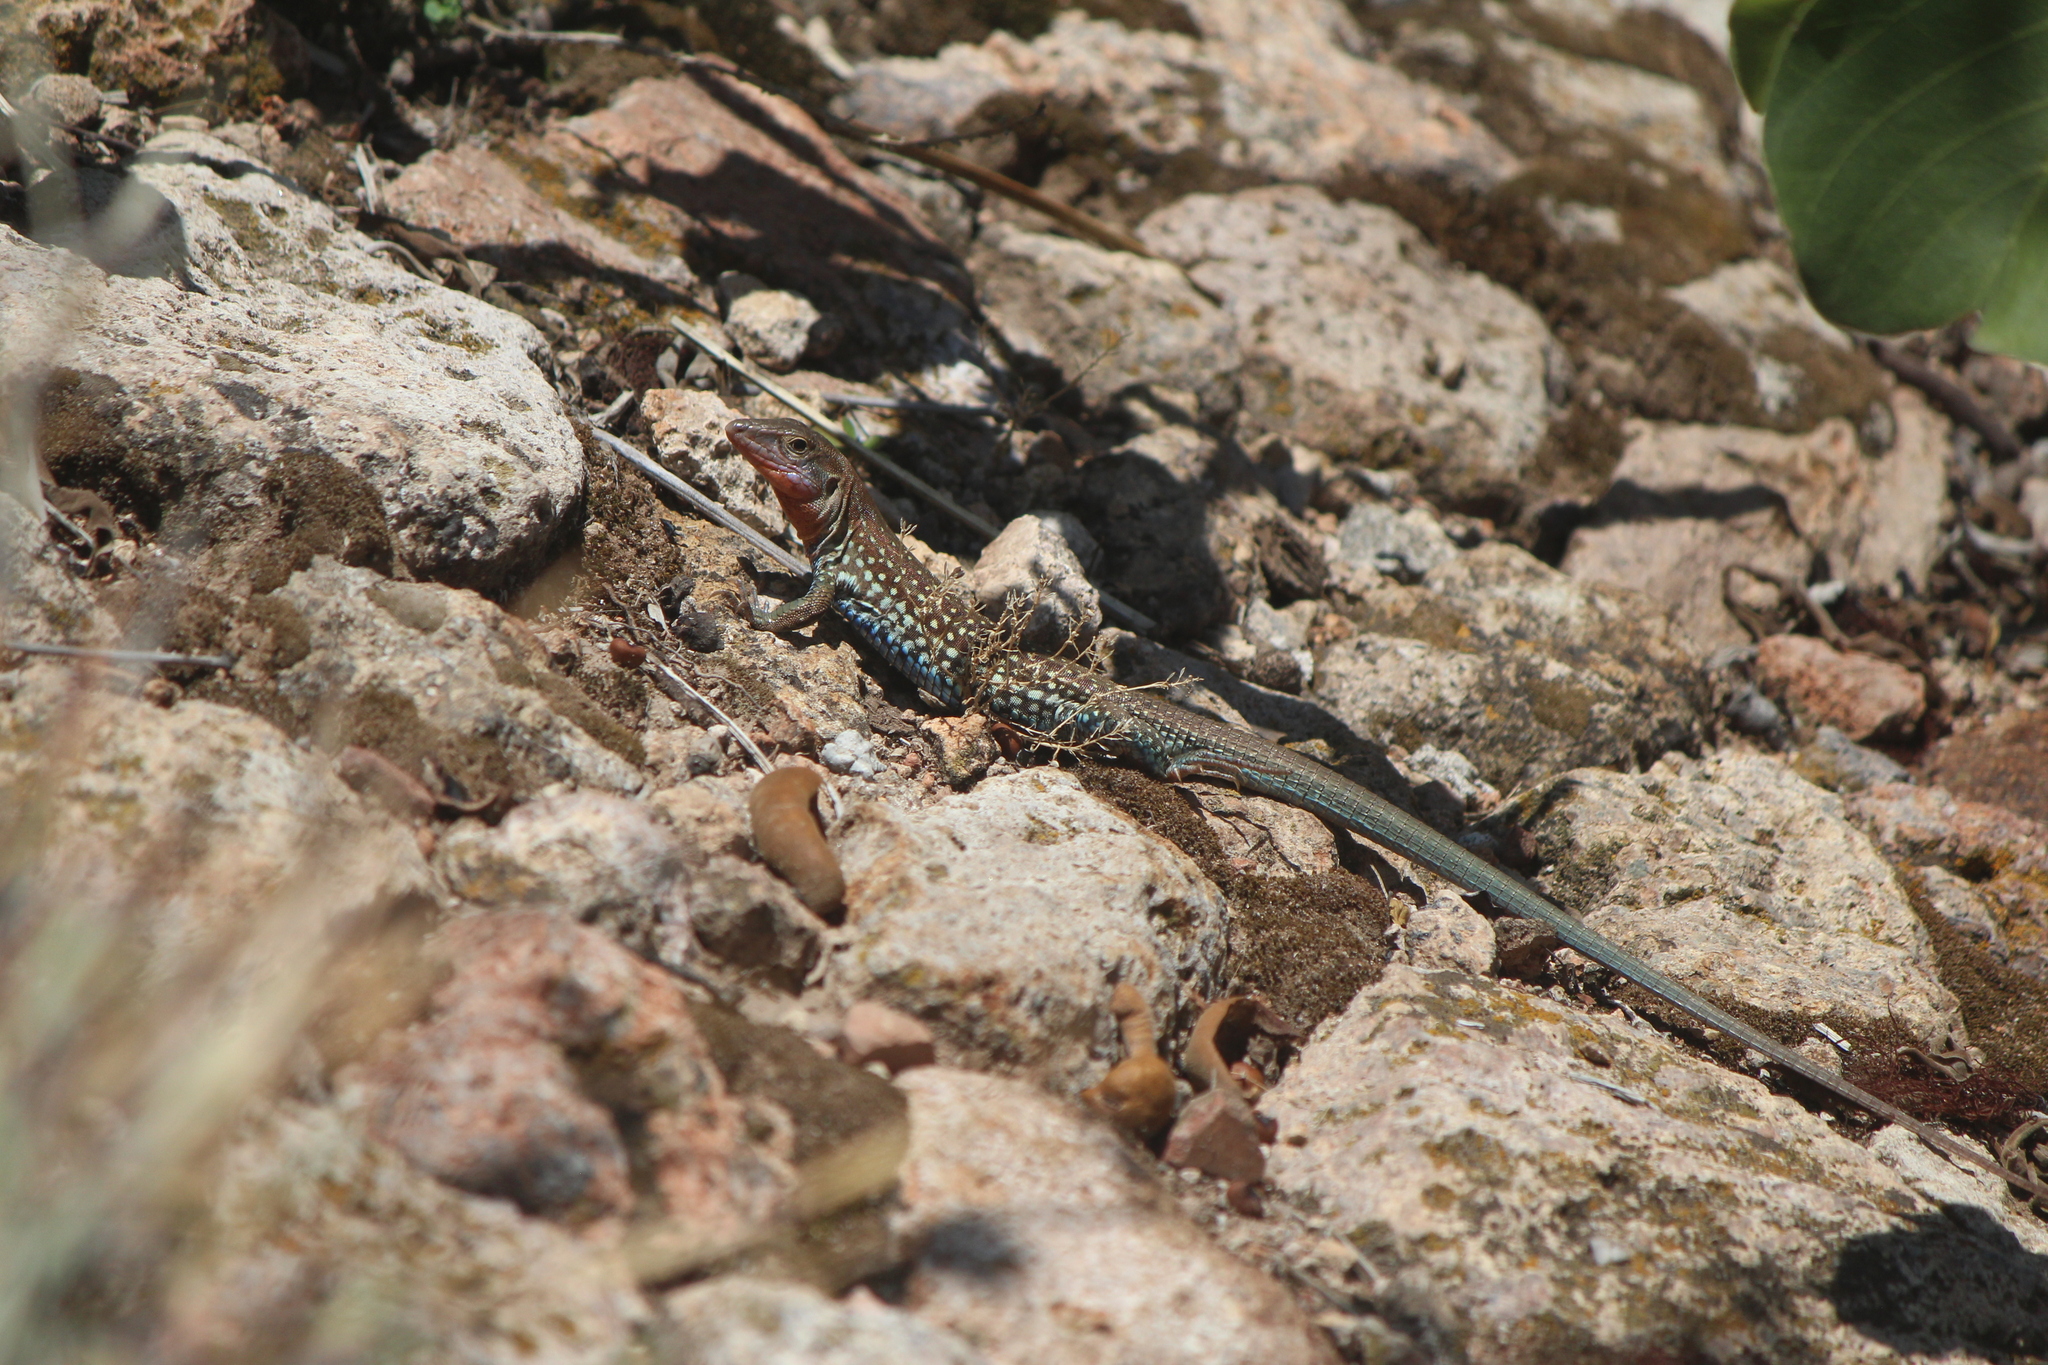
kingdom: Animalia
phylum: Chordata
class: Squamata
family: Teiidae
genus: Aspidoscelis
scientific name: Aspidoscelis gularis
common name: Eastern spotted whiptail
